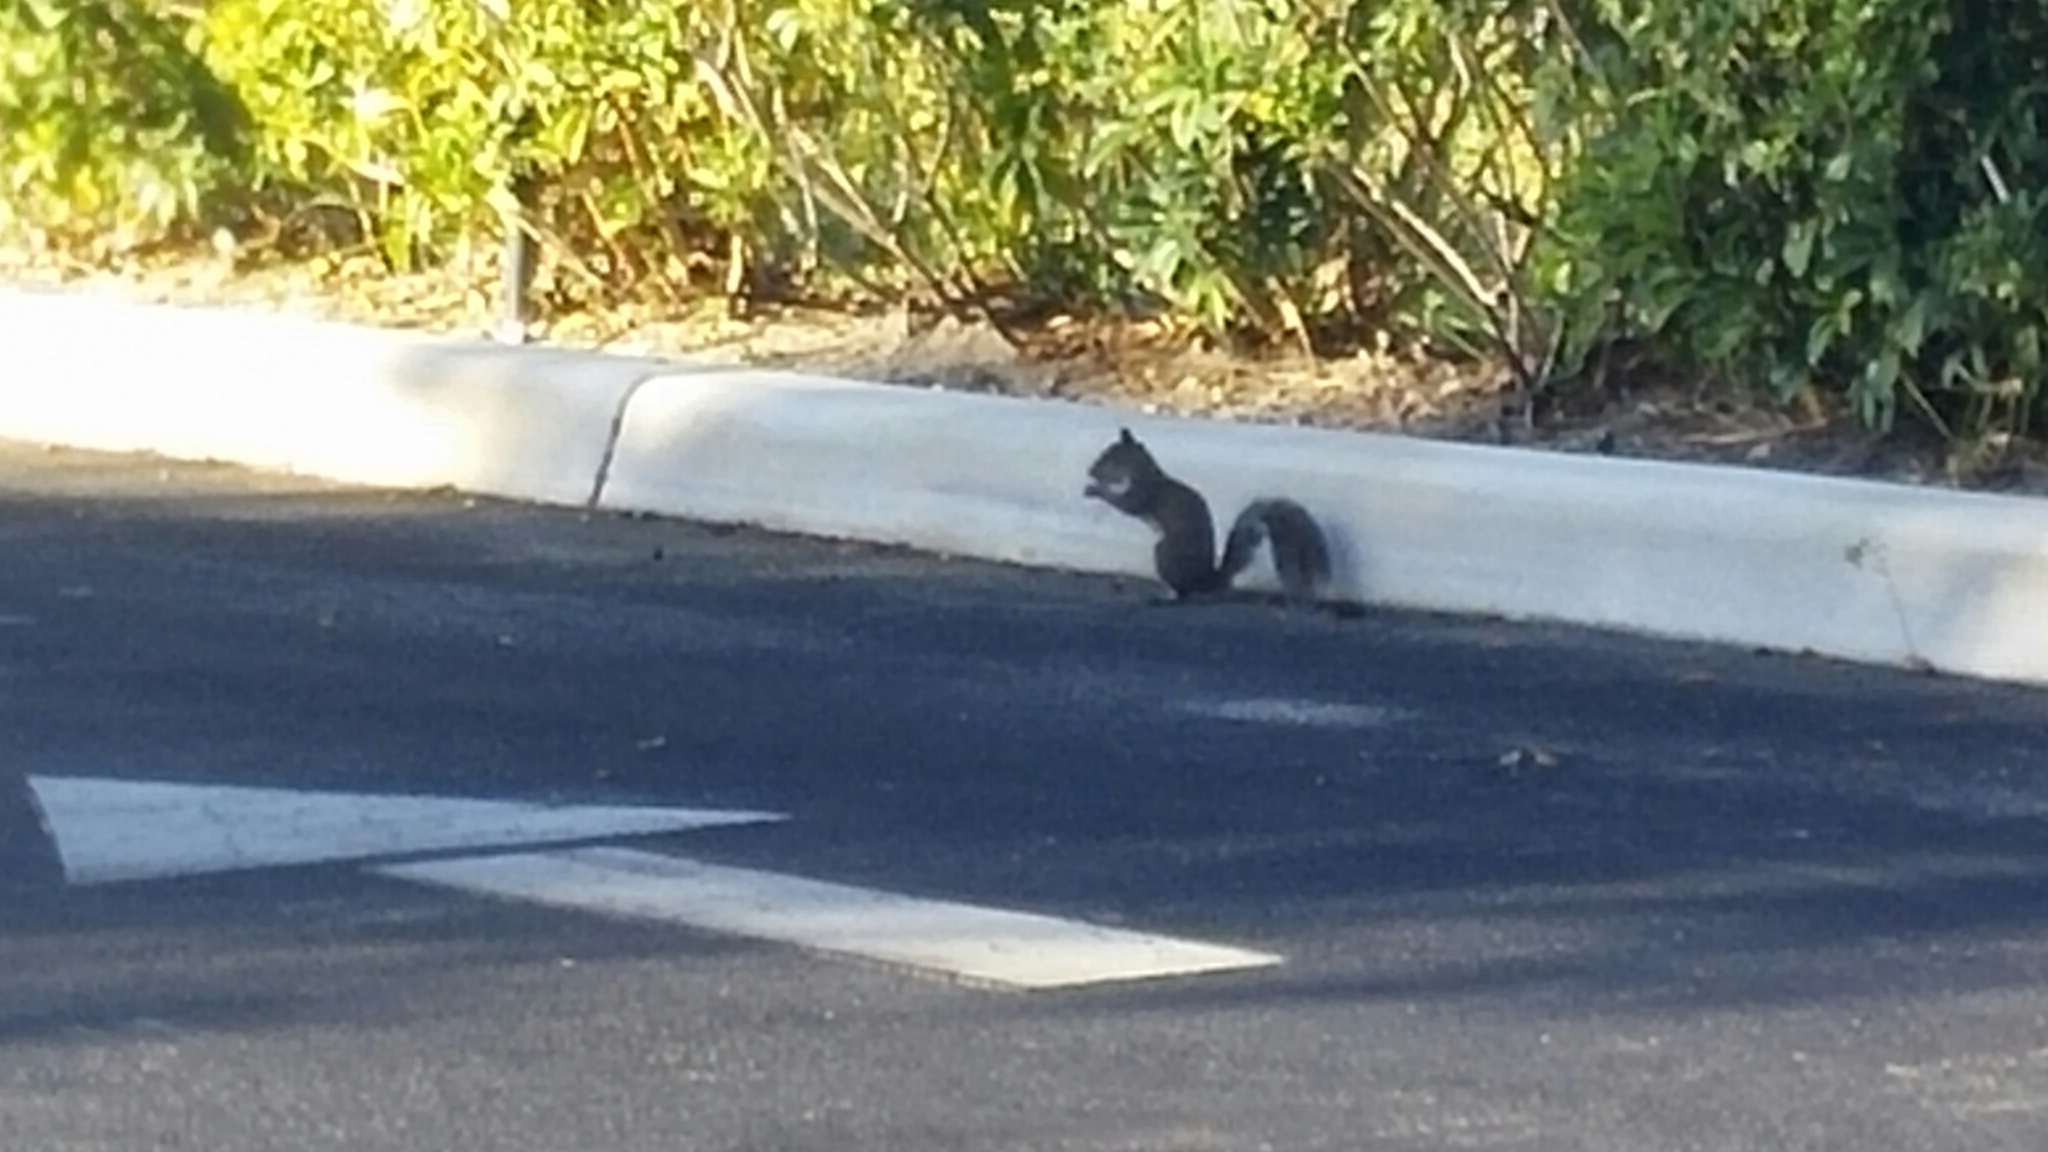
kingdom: Animalia
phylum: Chordata
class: Mammalia
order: Rodentia
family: Sciuridae
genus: Sciurus
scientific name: Sciurus carolinensis
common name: Eastern gray squirrel
